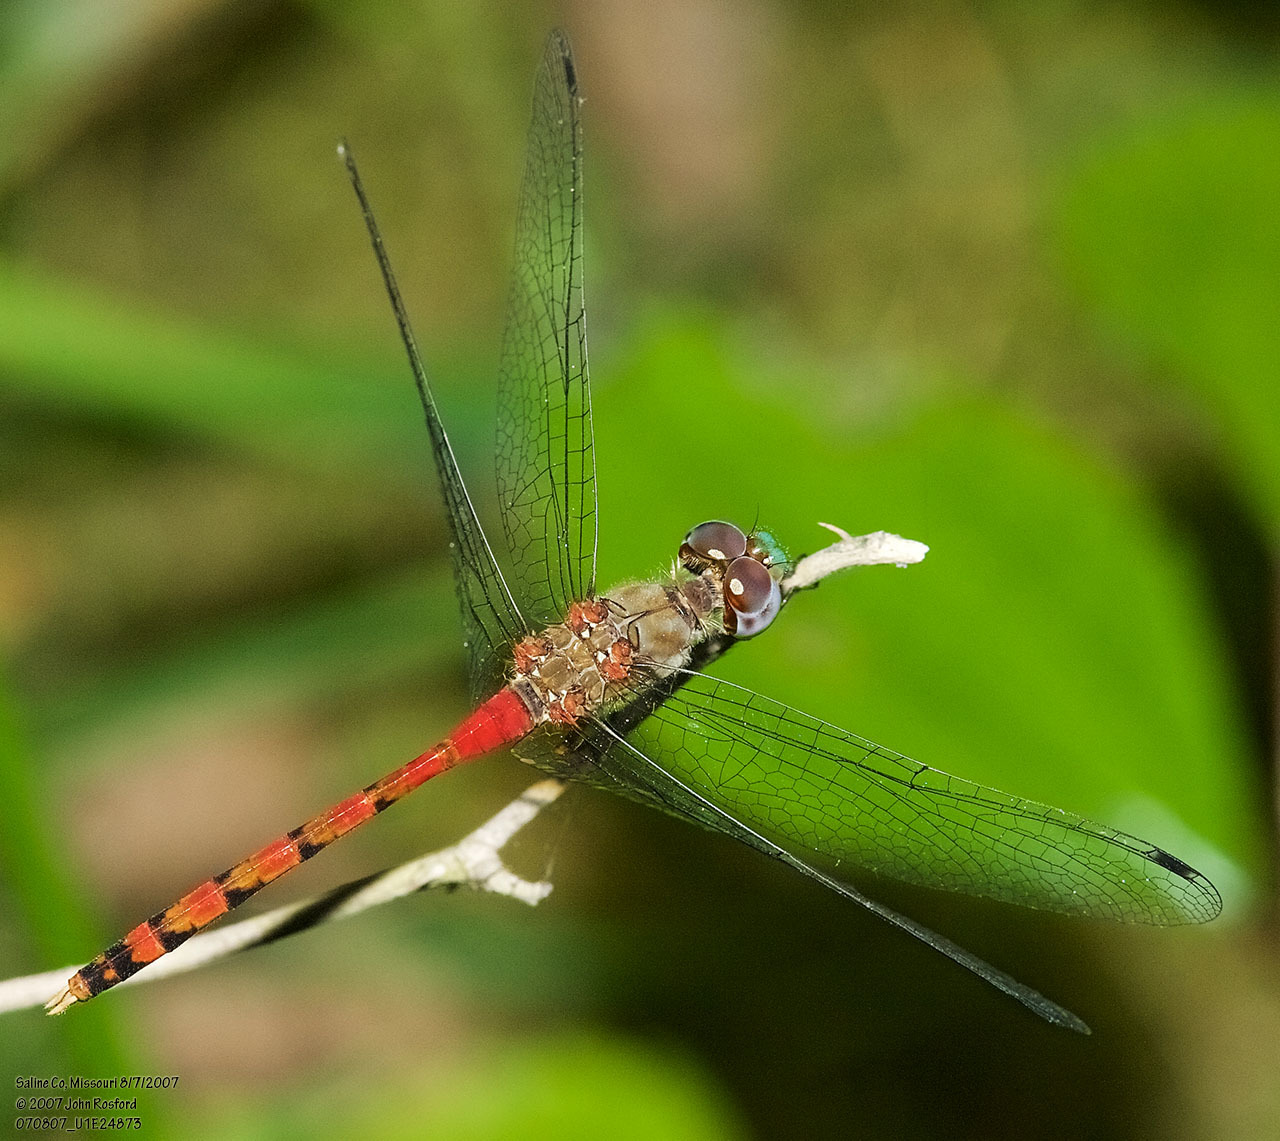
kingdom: Animalia
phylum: Arthropoda
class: Insecta
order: Odonata
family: Libellulidae
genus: Sympetrum
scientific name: Sympetrum ambiguum
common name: Blue-faced meadowhawk
